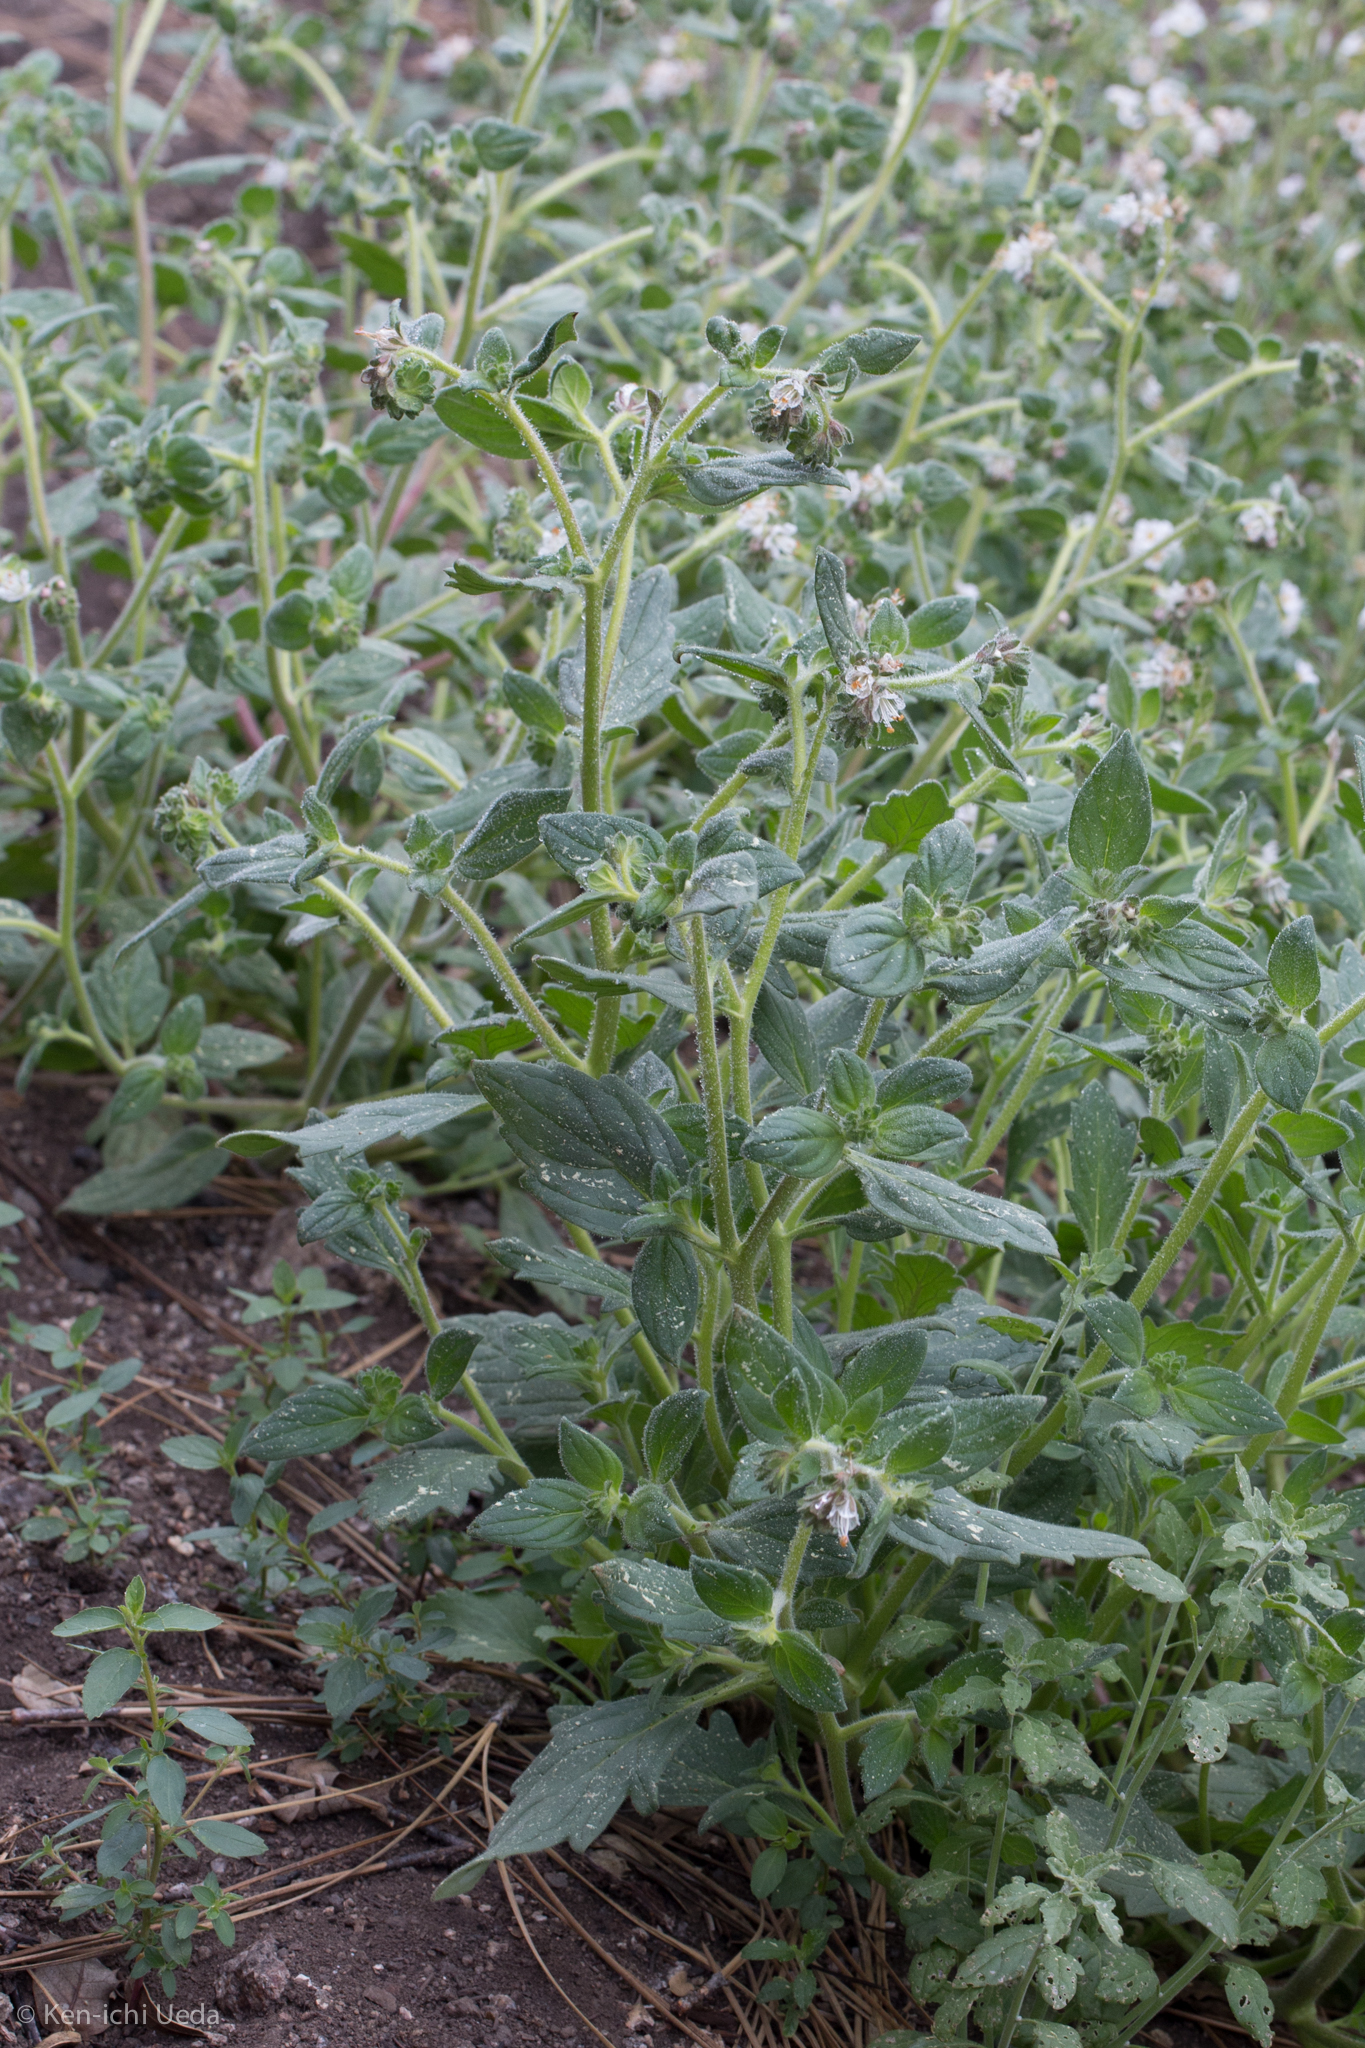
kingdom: Plantae
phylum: Tracheophyta
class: Magnoliopsida
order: Boraginales
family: Hydrophyllaceae
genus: Phacelia
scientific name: Phacelia grisea
